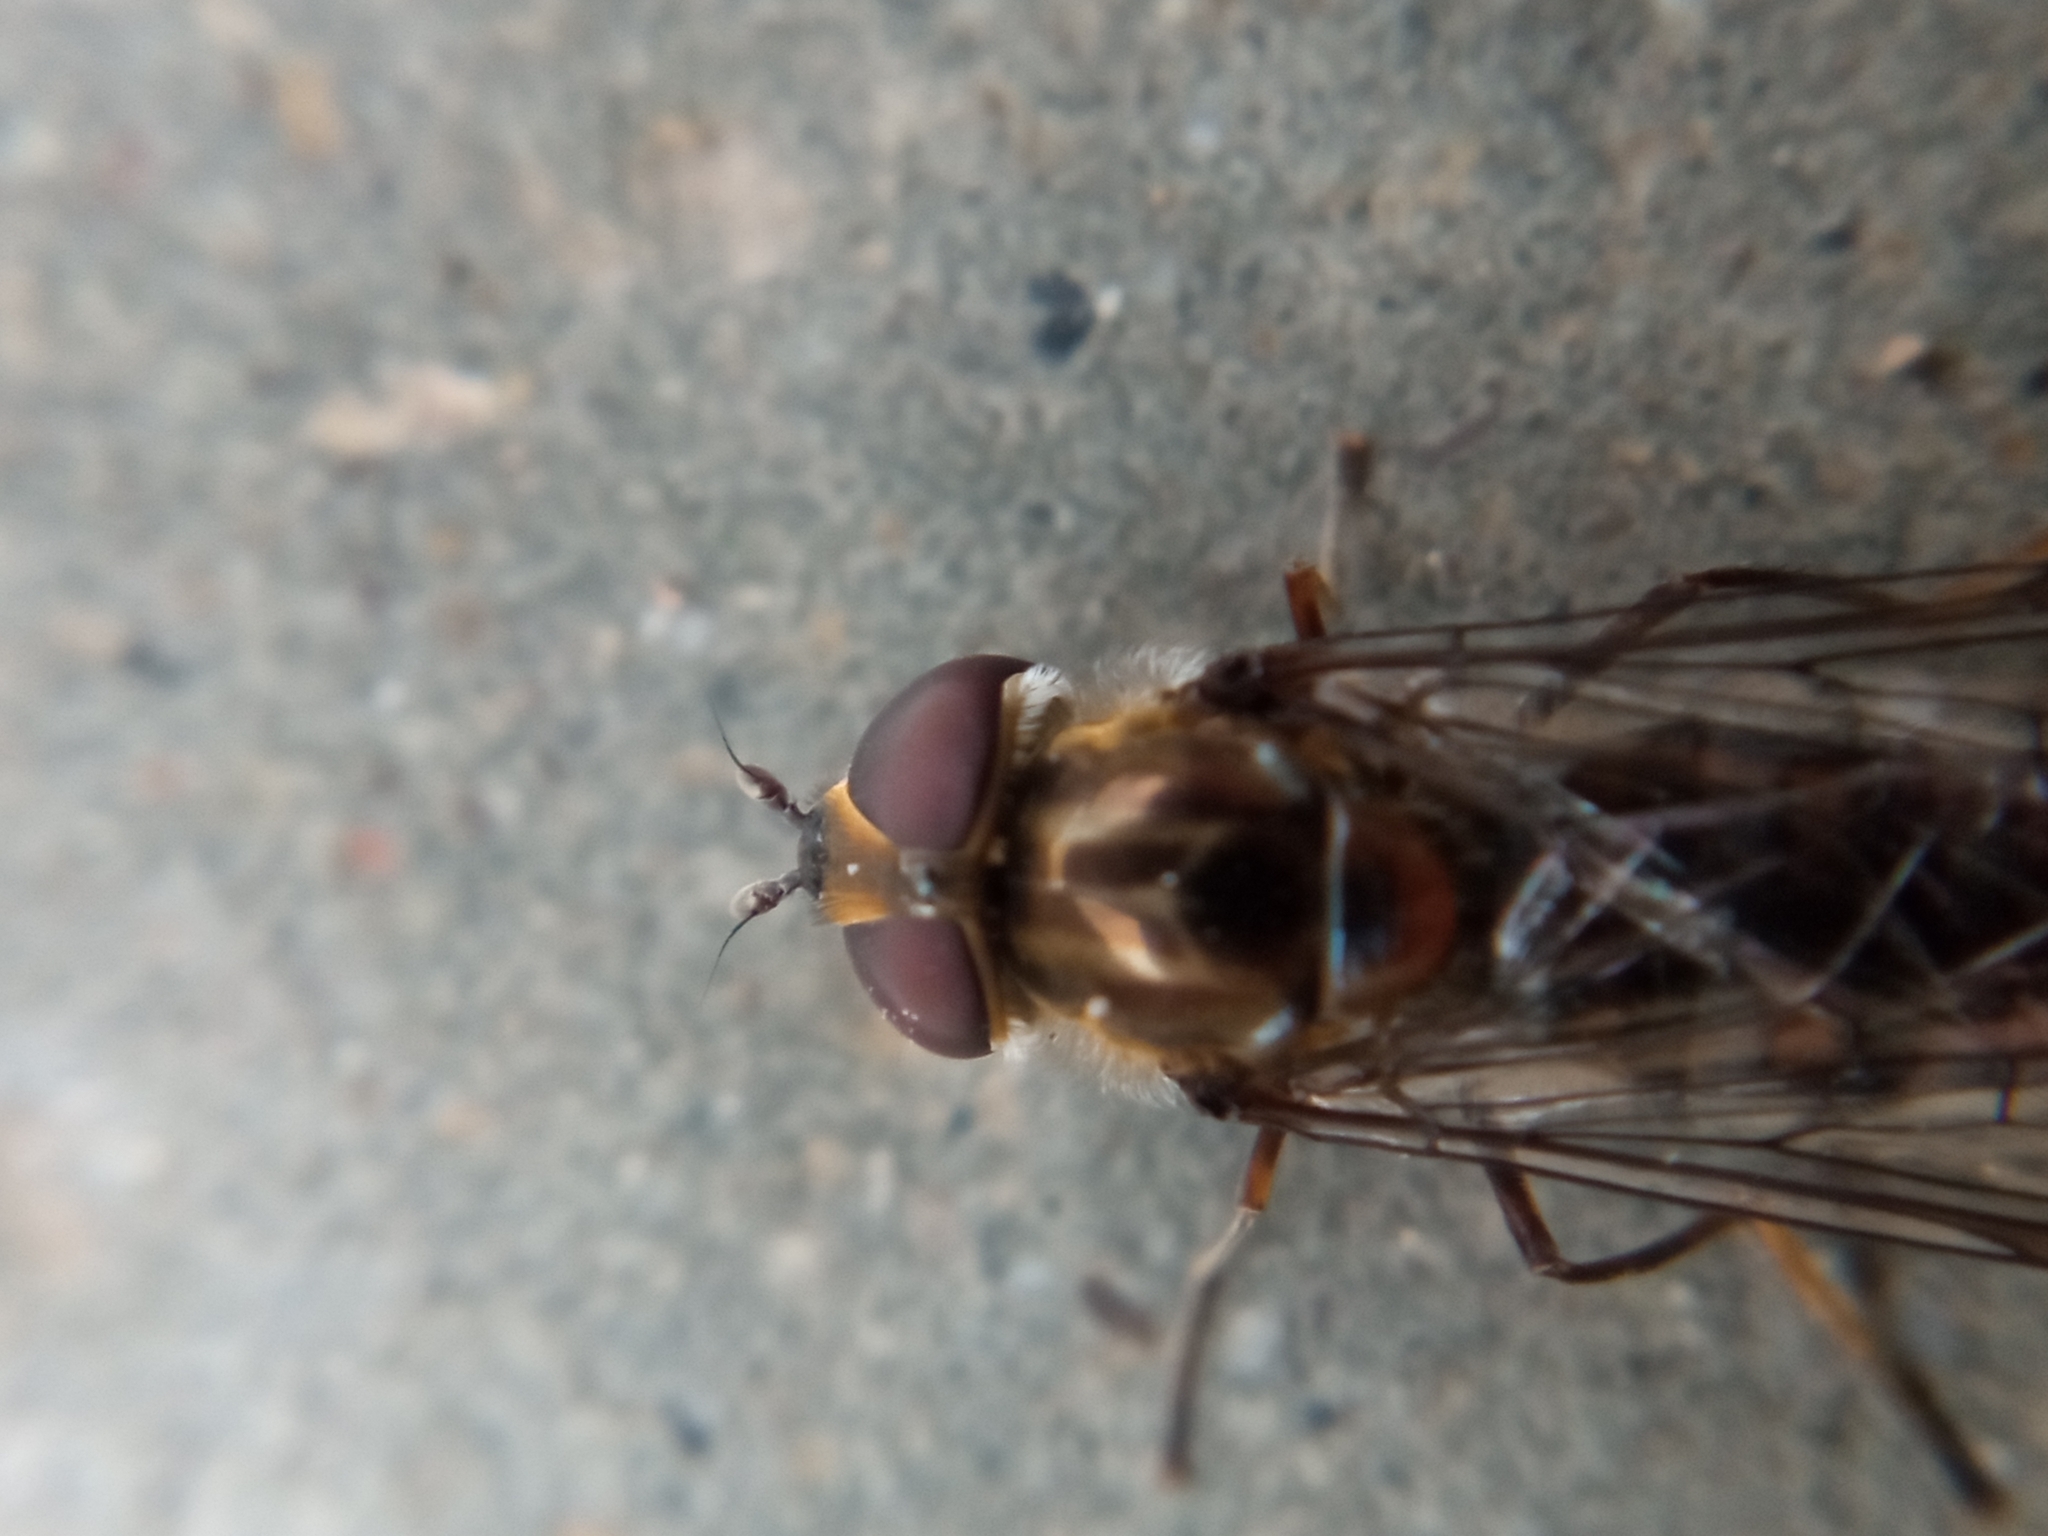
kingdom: Animalia
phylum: Arthropoda
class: Insecta
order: Diptera
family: Syrphidae
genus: Episyrphus
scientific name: Episyrphus balteatus
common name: Marmalade hoverfly
